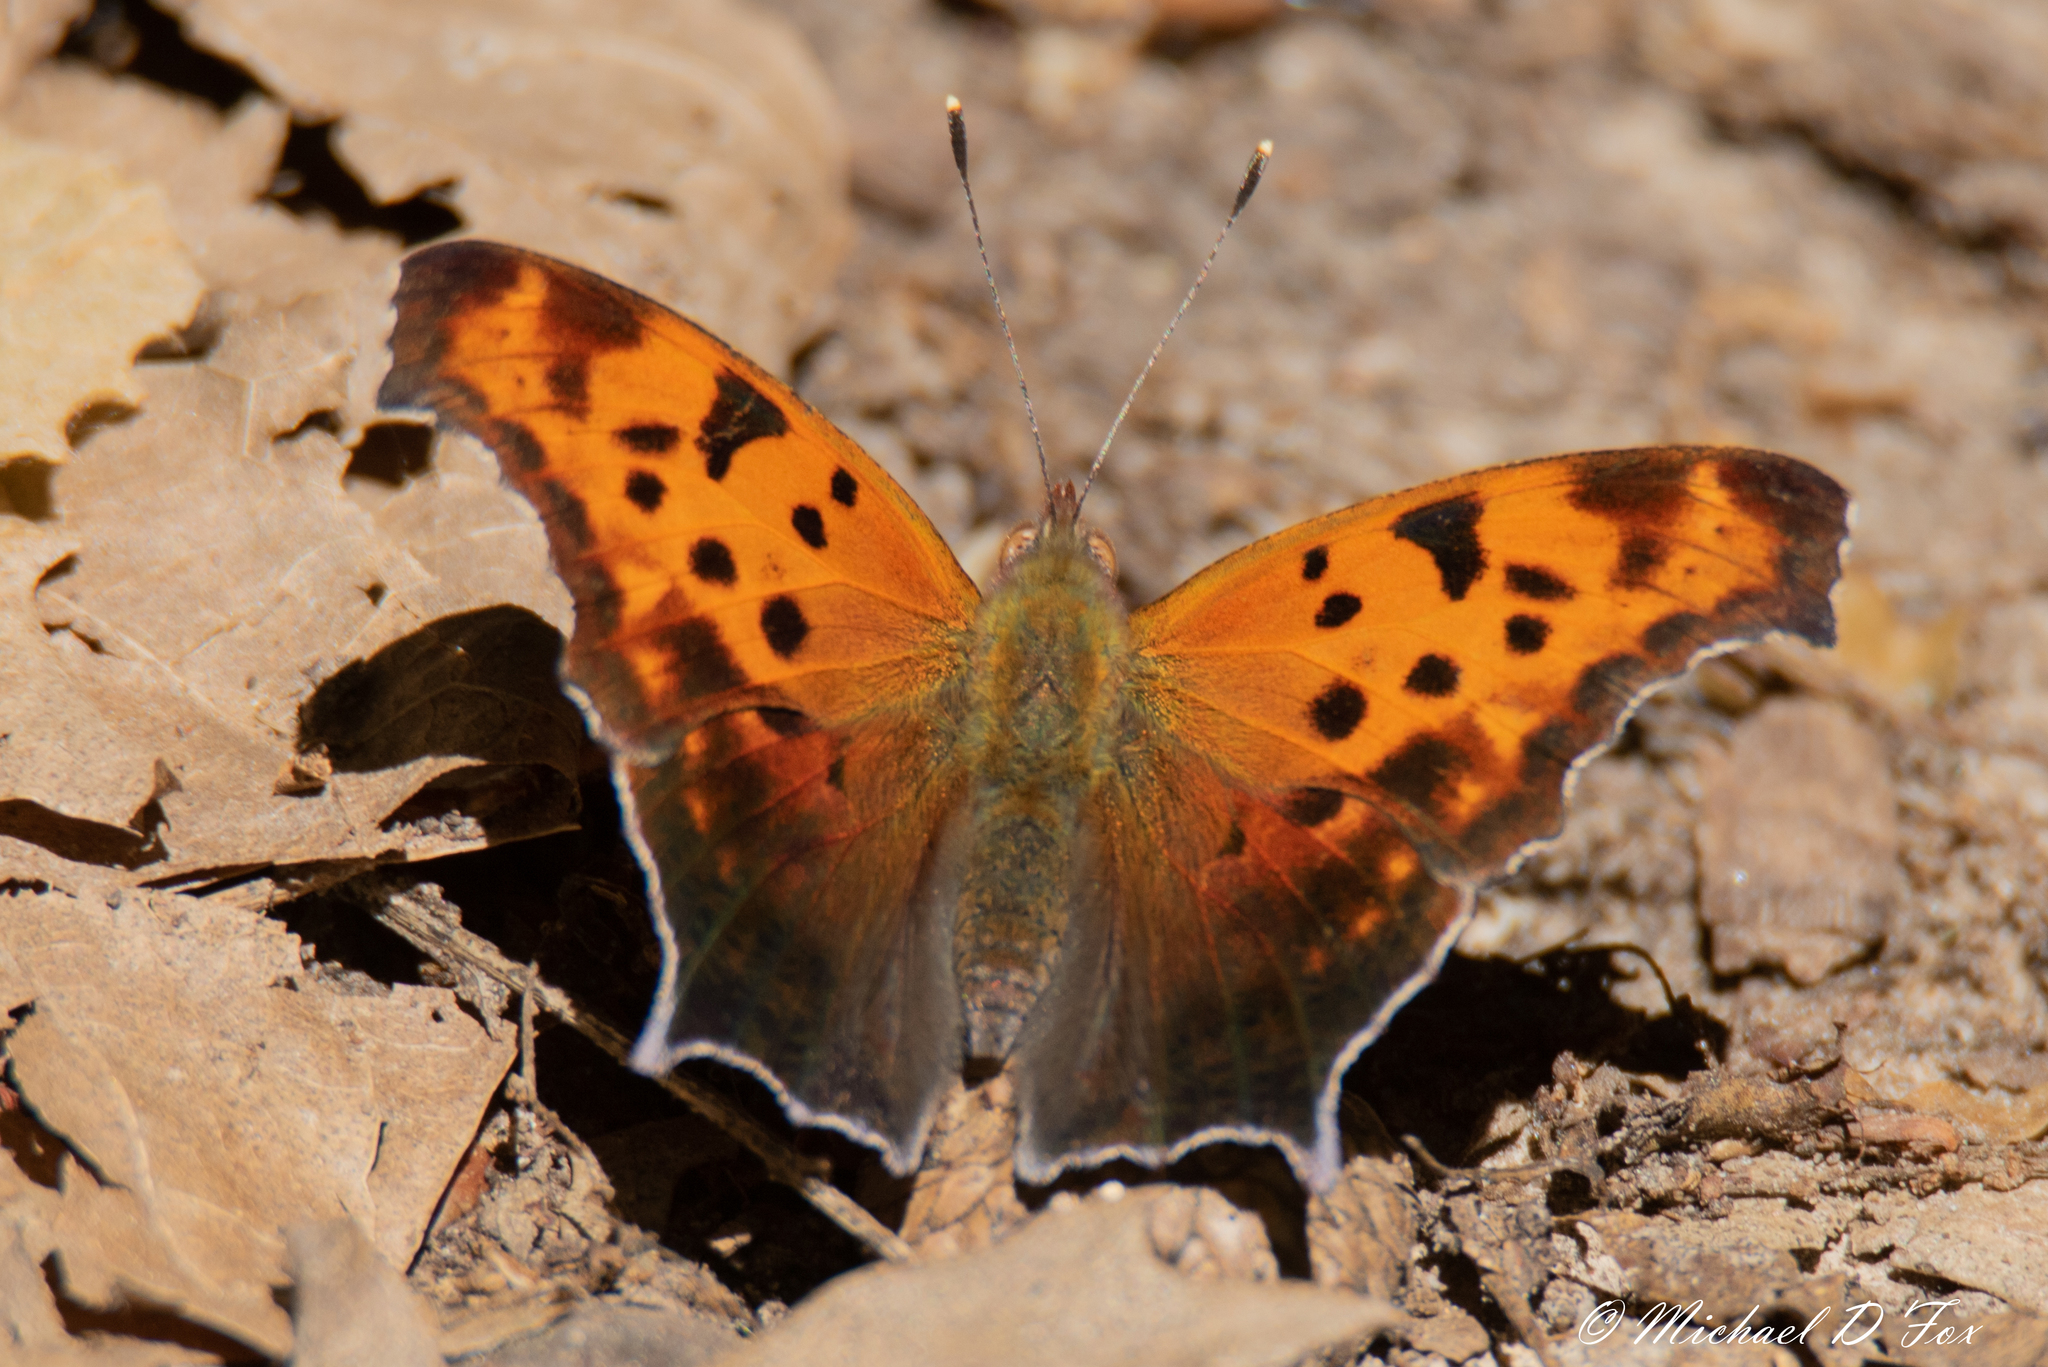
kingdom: Animalia
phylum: Arthropoda
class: Insecta
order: Lepidoptera
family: Nymphalidae
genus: Polygonia
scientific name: Polygonia interrogationis
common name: Question mark
